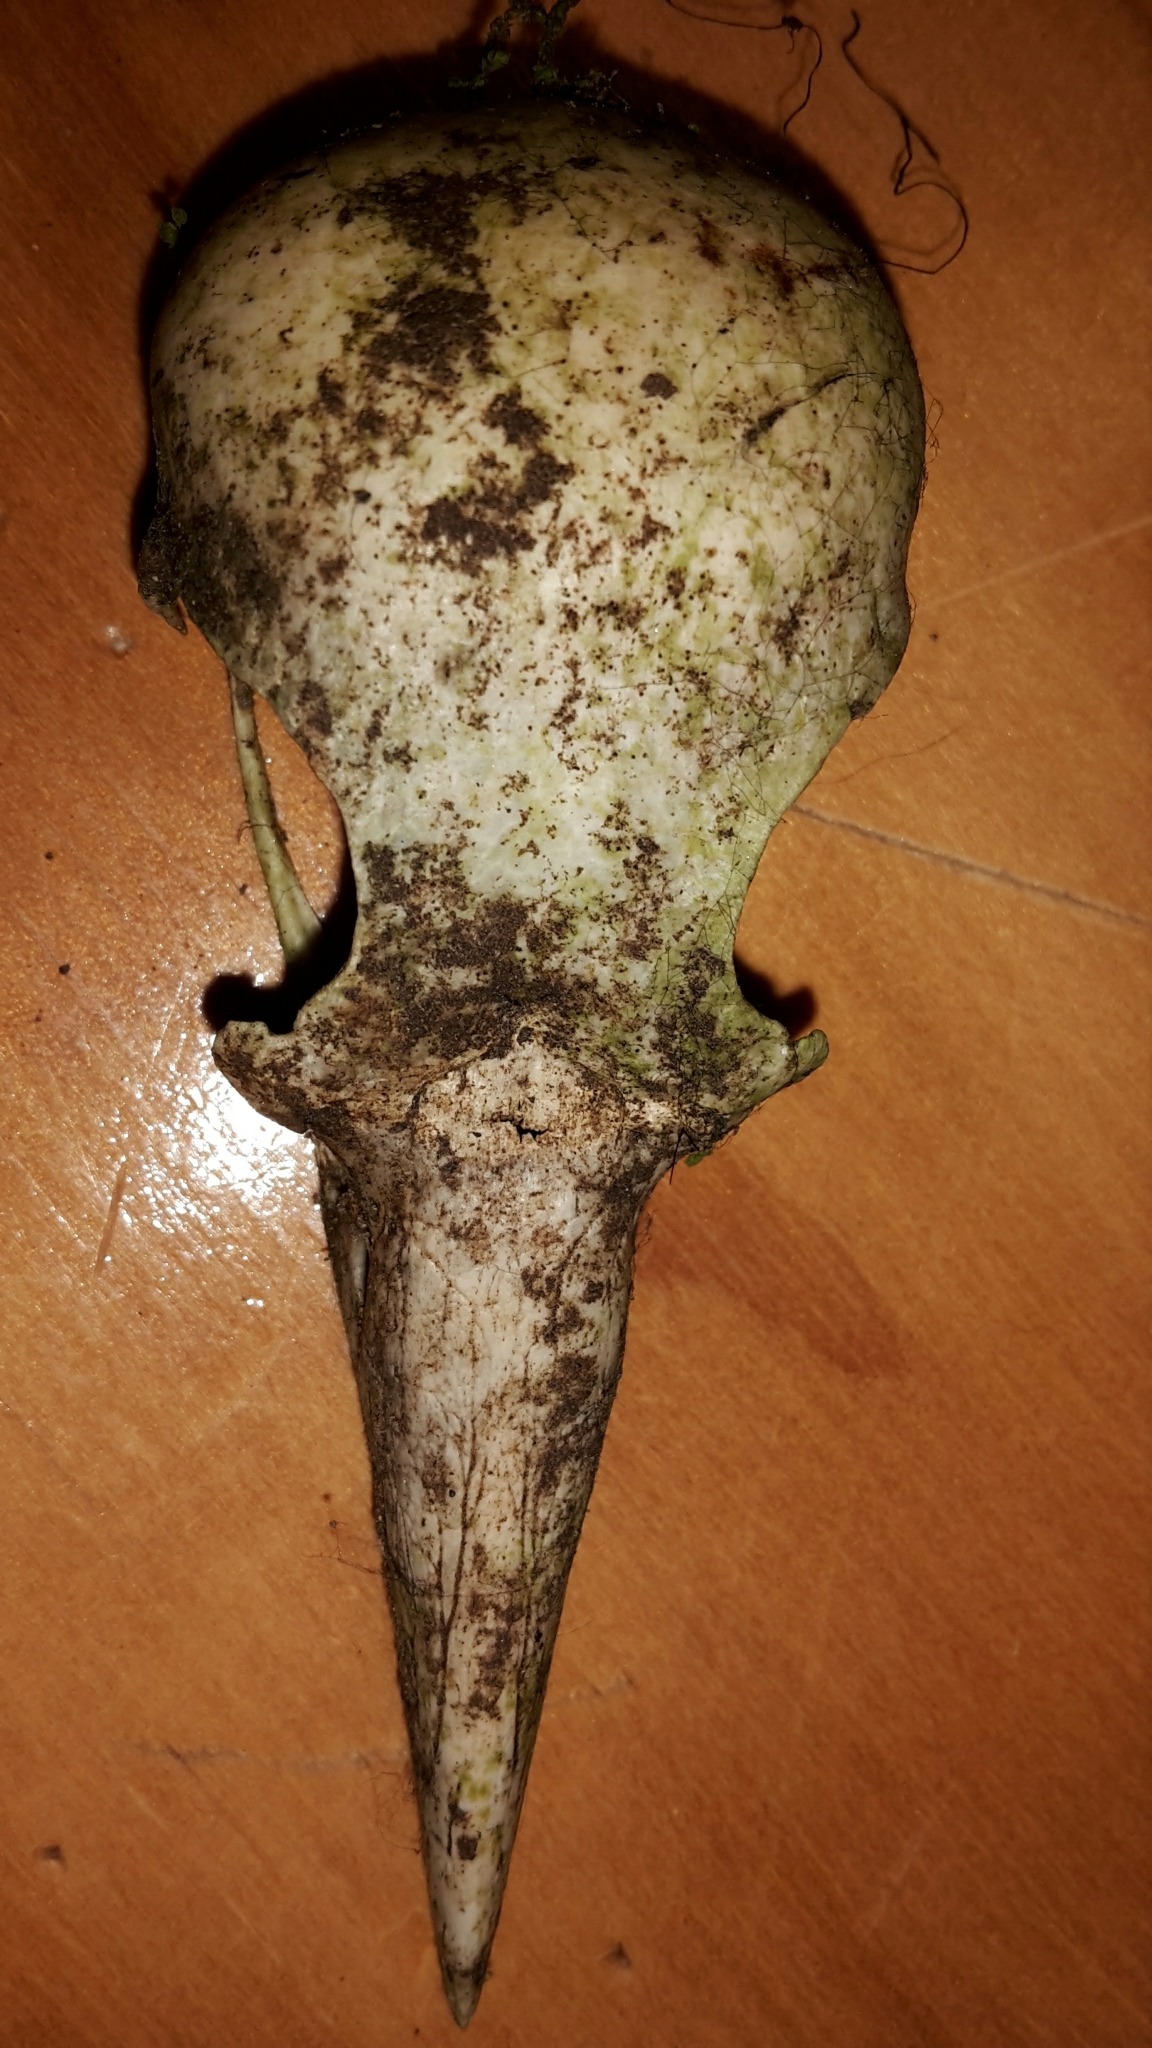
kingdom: Animalia
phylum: Chordata
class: Aves
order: Passeriformes
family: Cracticidae
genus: Gymnorhina
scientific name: Gymnorhina tibicen
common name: Australian magpie
